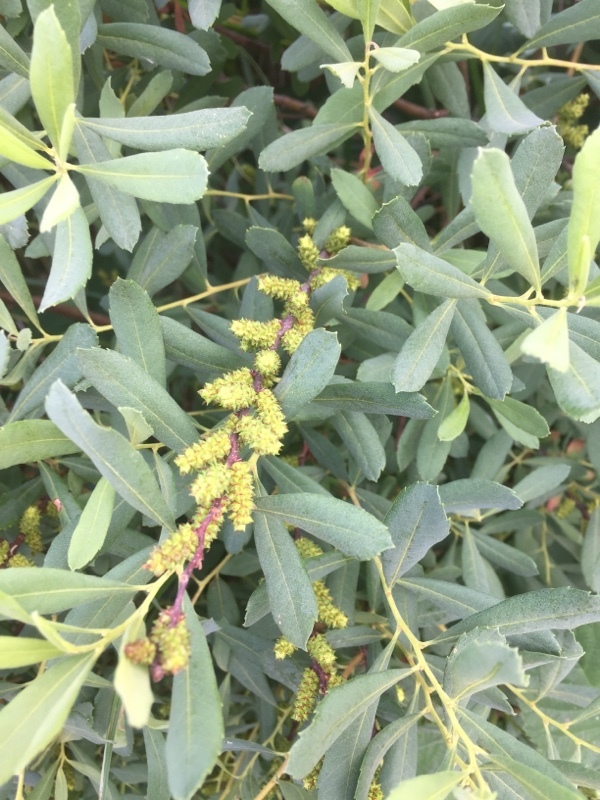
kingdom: Plantae
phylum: Tracheophyta
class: Magnoliopsida
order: Fagales
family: Myricaceae
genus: Myrica
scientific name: Myrica gale
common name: Sweet gale
